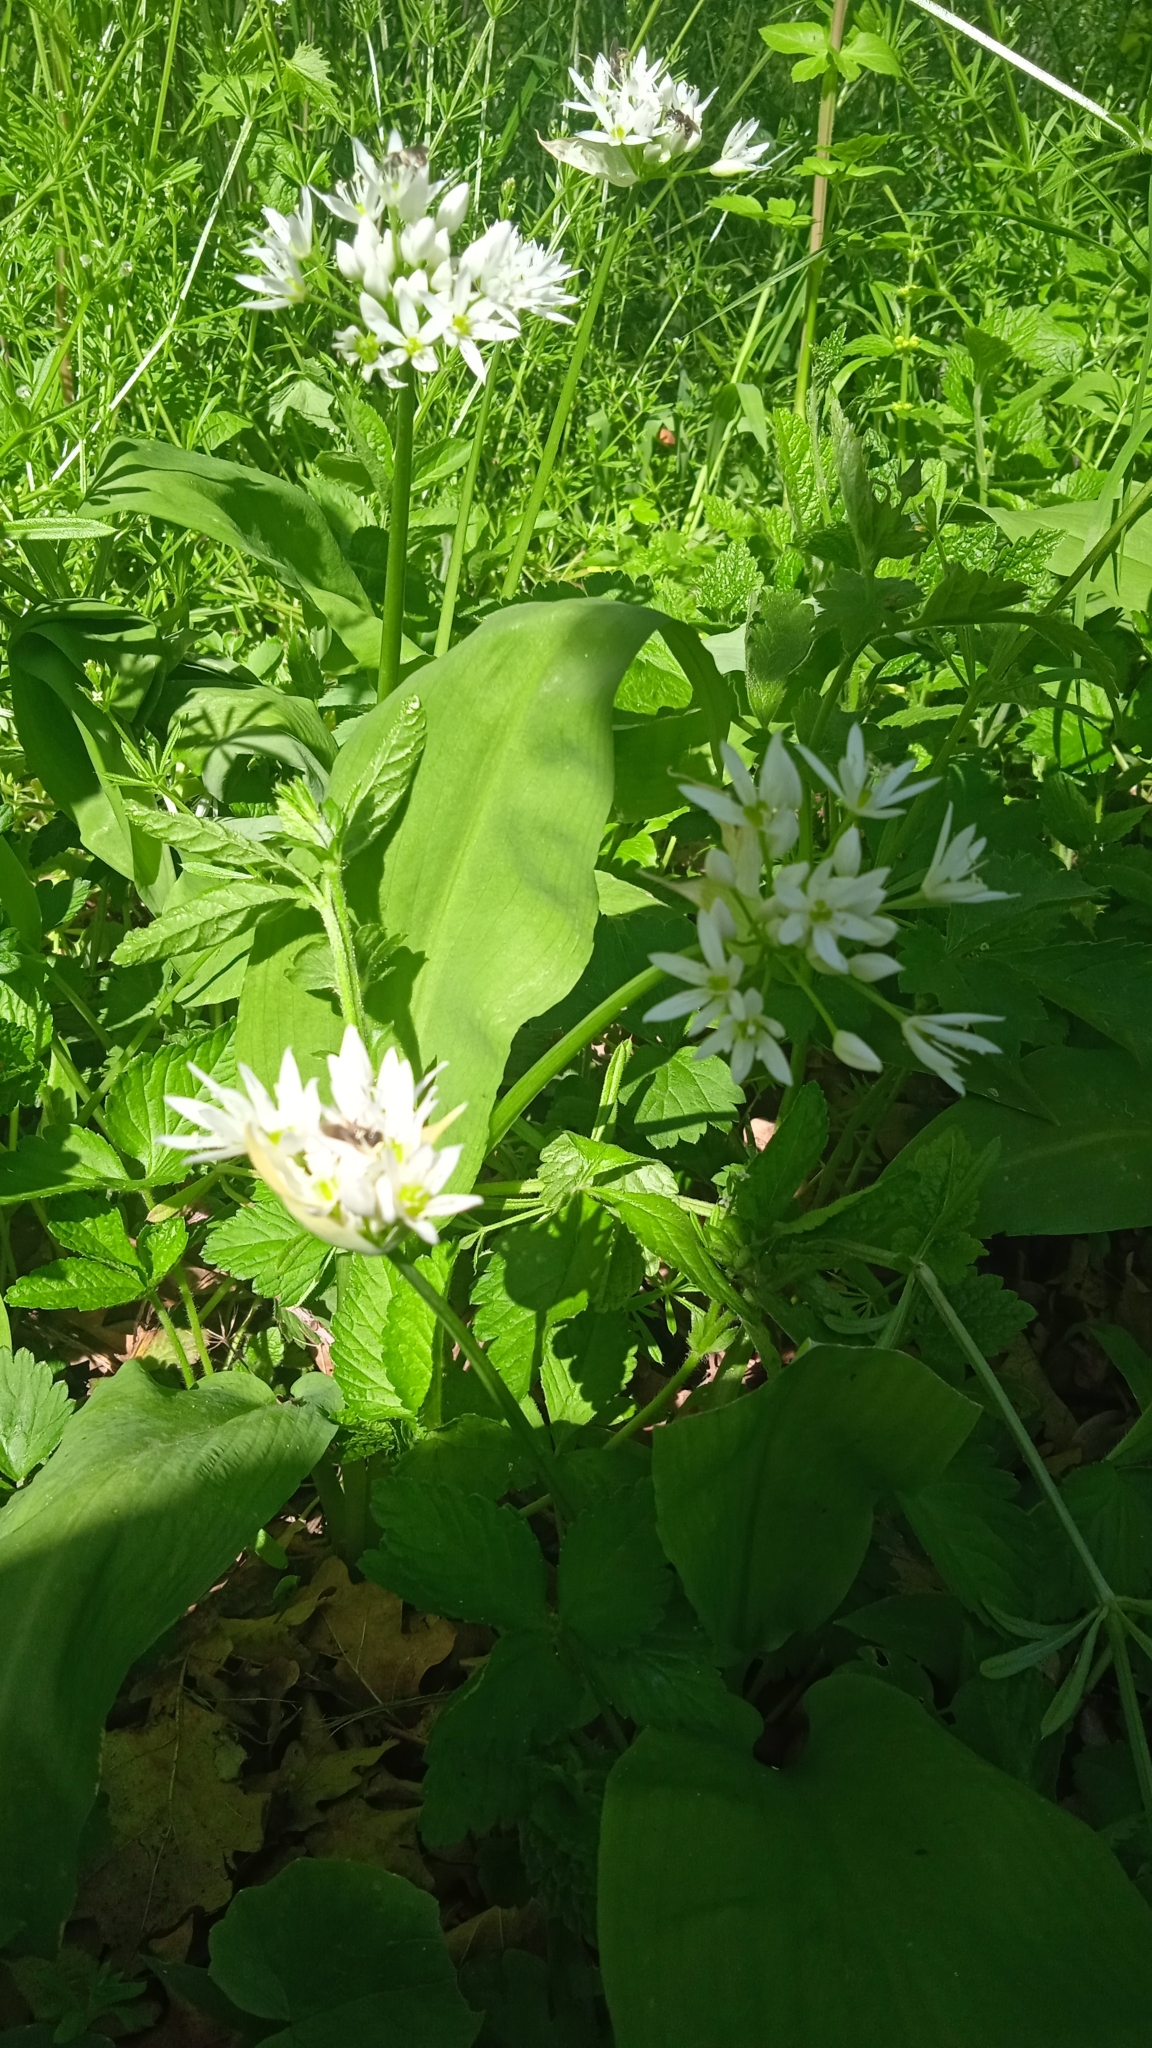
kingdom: Plantae
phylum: Tracheophyta
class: Liliopsida
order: Asparagales
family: Amaryllidaceae
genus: Allium
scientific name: Allium ursinum
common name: Ramsons
